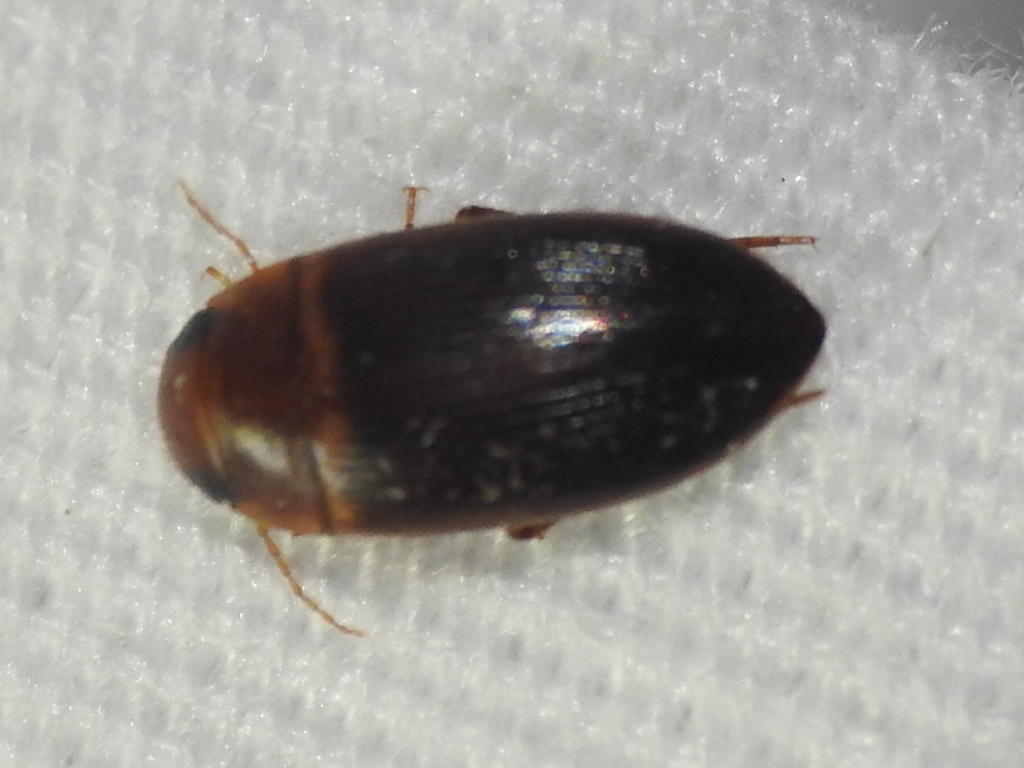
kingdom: Animalia
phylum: Arthropoda
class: Insecta
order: Coleoptera
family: Dytiscidae
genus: Copelatus
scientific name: Copelatus caelatipennis
